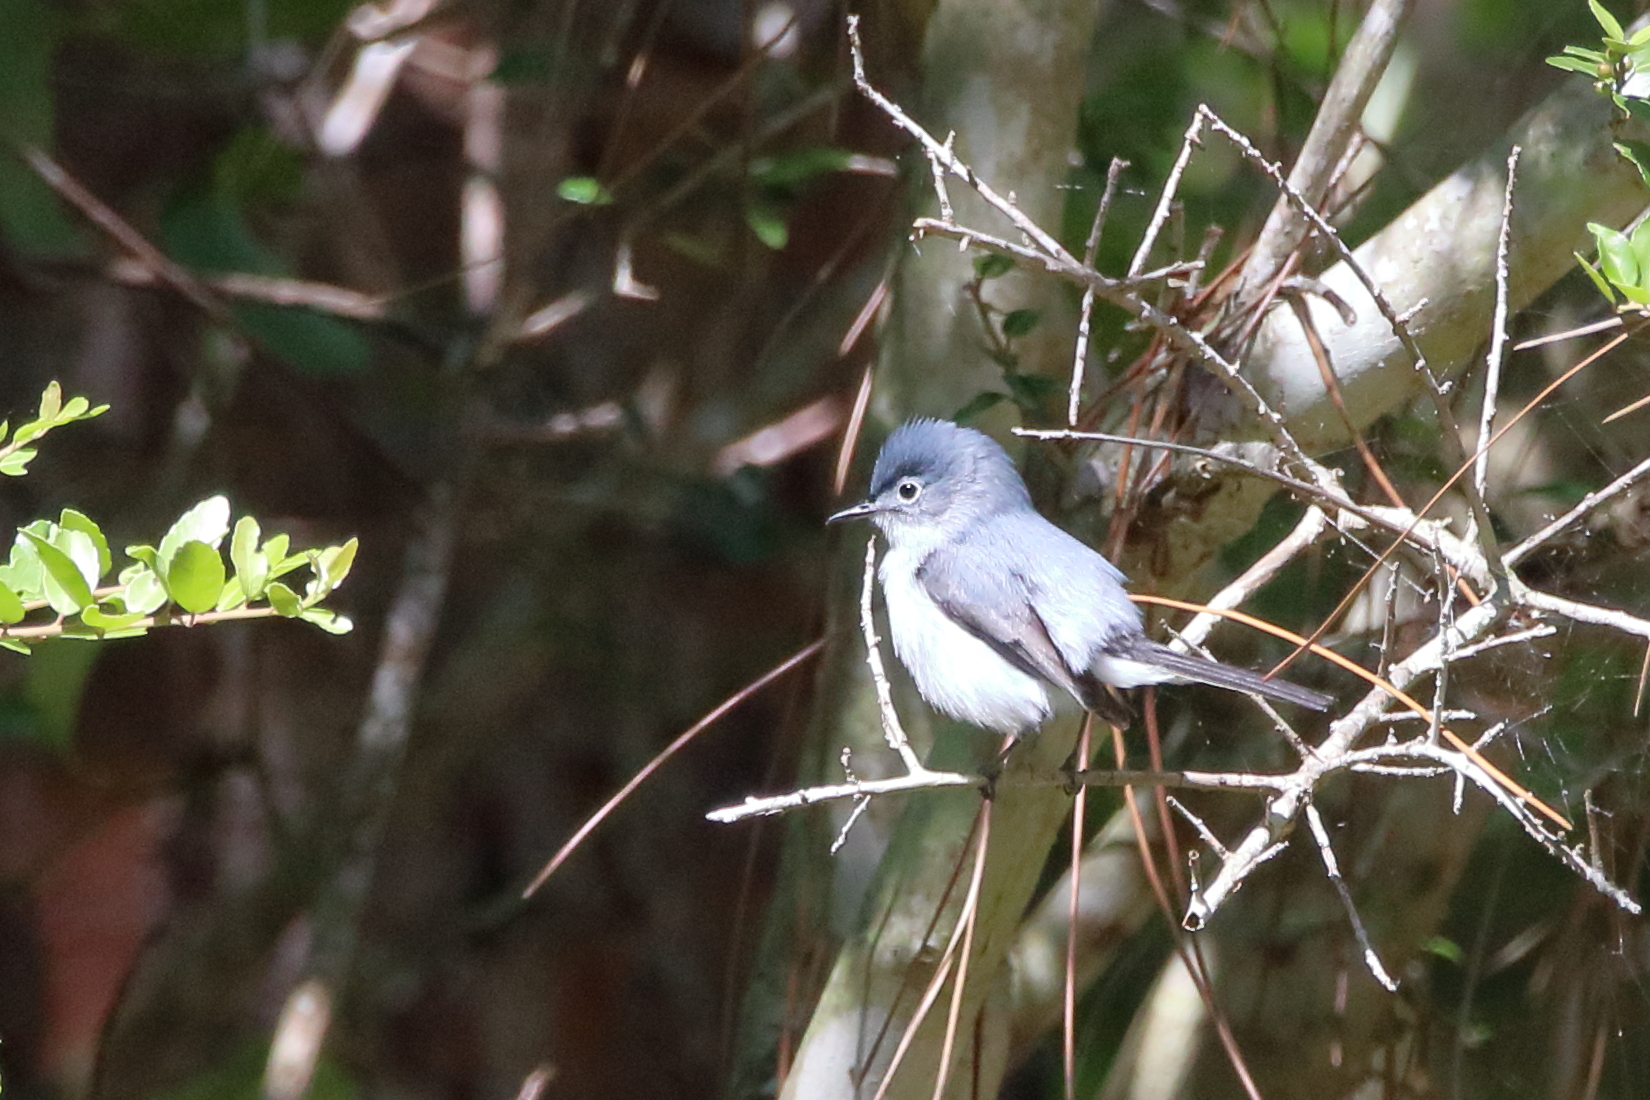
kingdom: Animalia
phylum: Chordata
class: Aves
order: Passeriformes
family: Polioptilidae
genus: Polioptila
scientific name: Polioptila caerulea
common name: Blue-gray gnatcatcher
